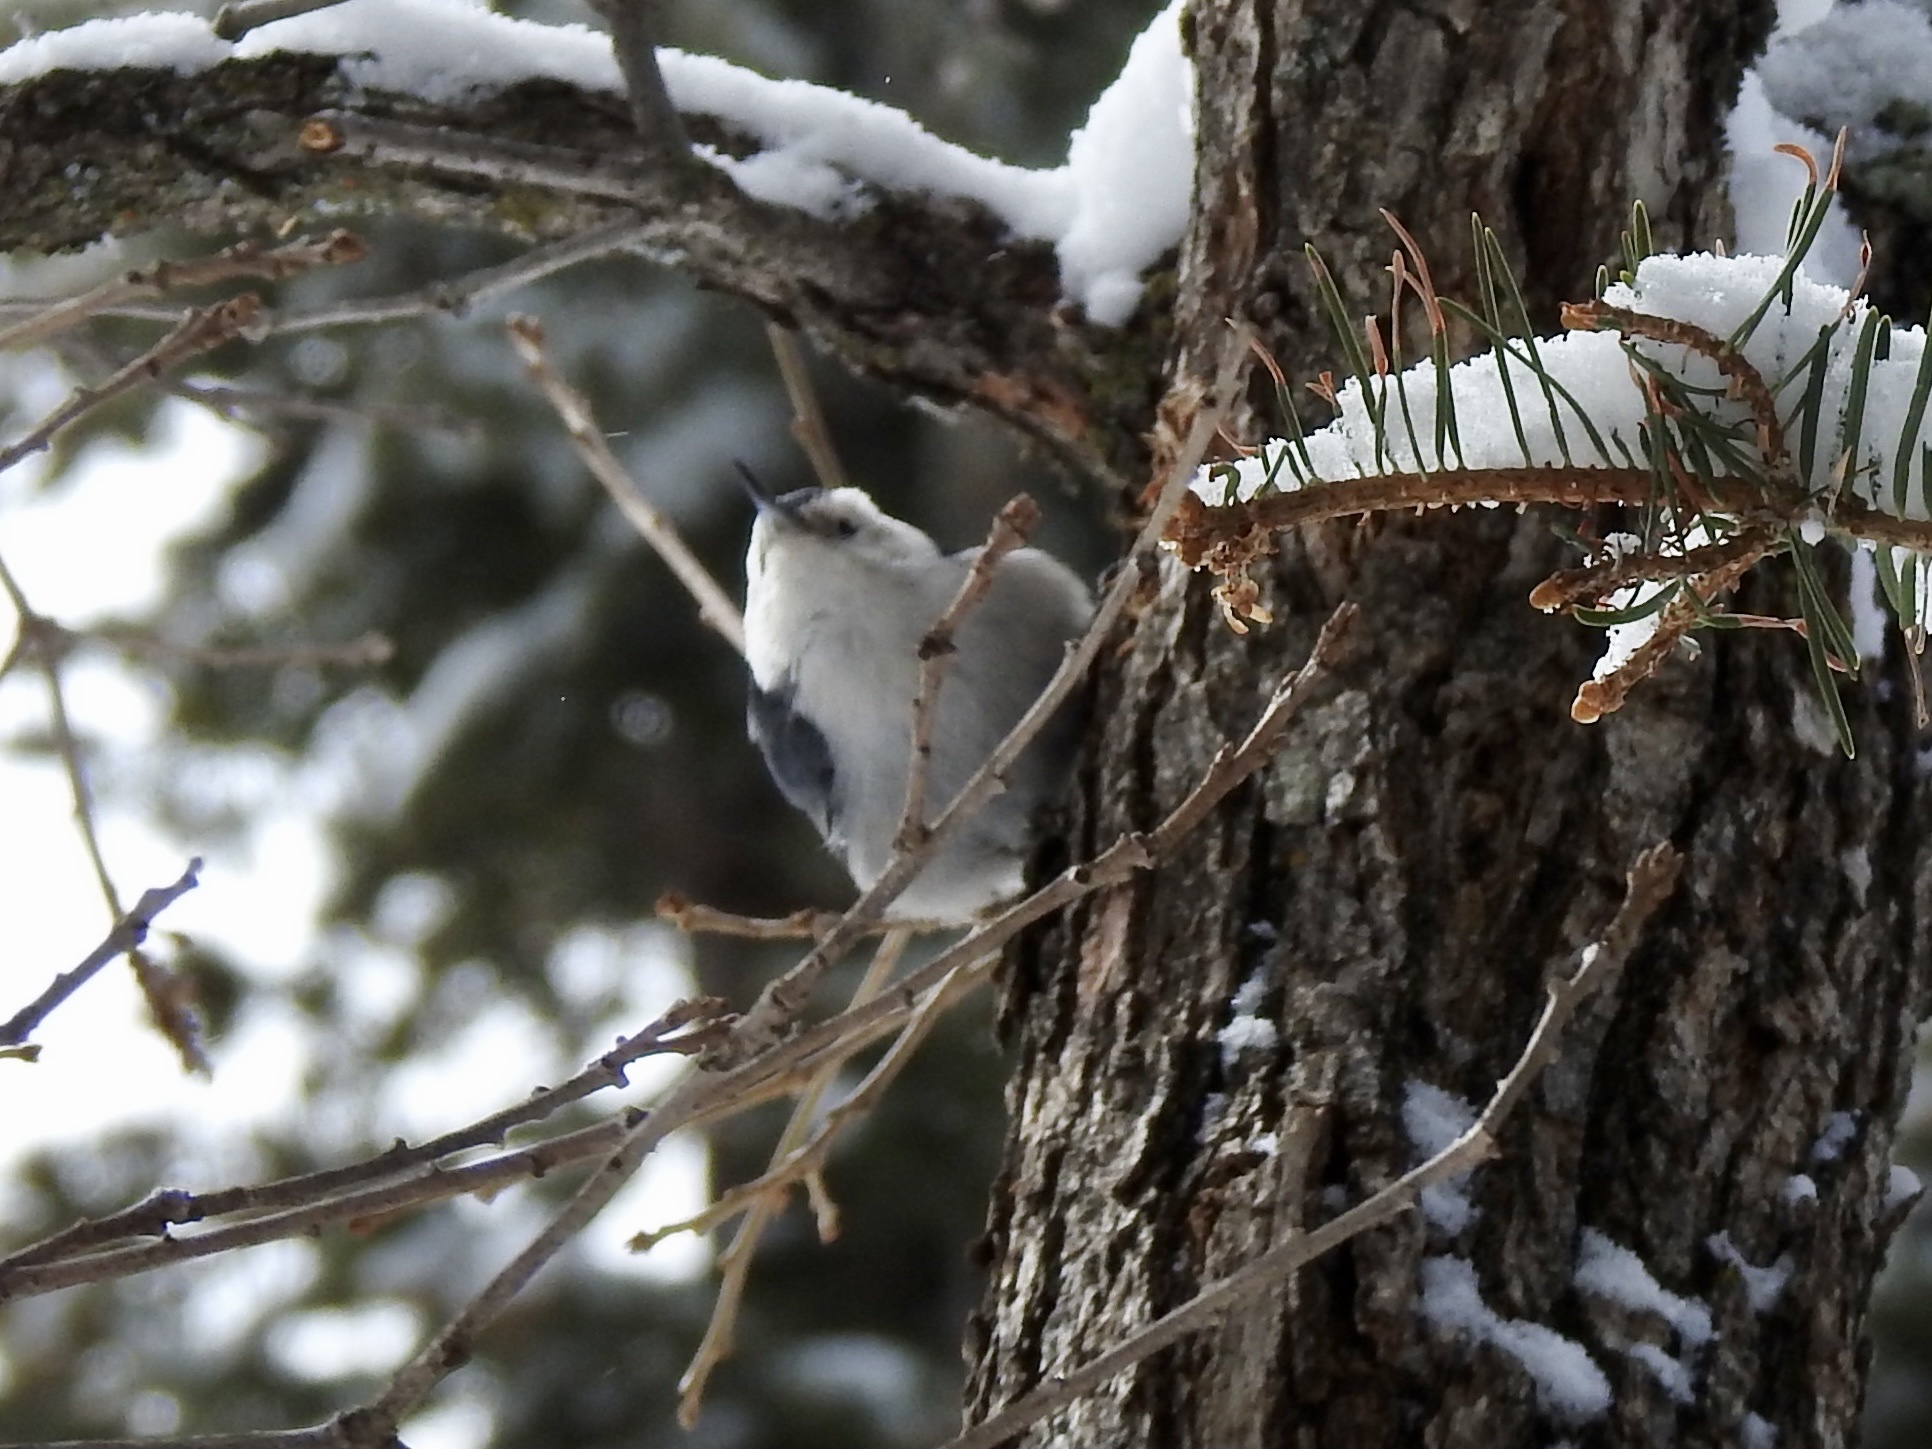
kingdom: Animalia
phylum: Chordata
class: Aves
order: Passeriformes
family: Sittidae
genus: Sitta
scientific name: Sitta carolinensis
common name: White-breasted nuthatch
